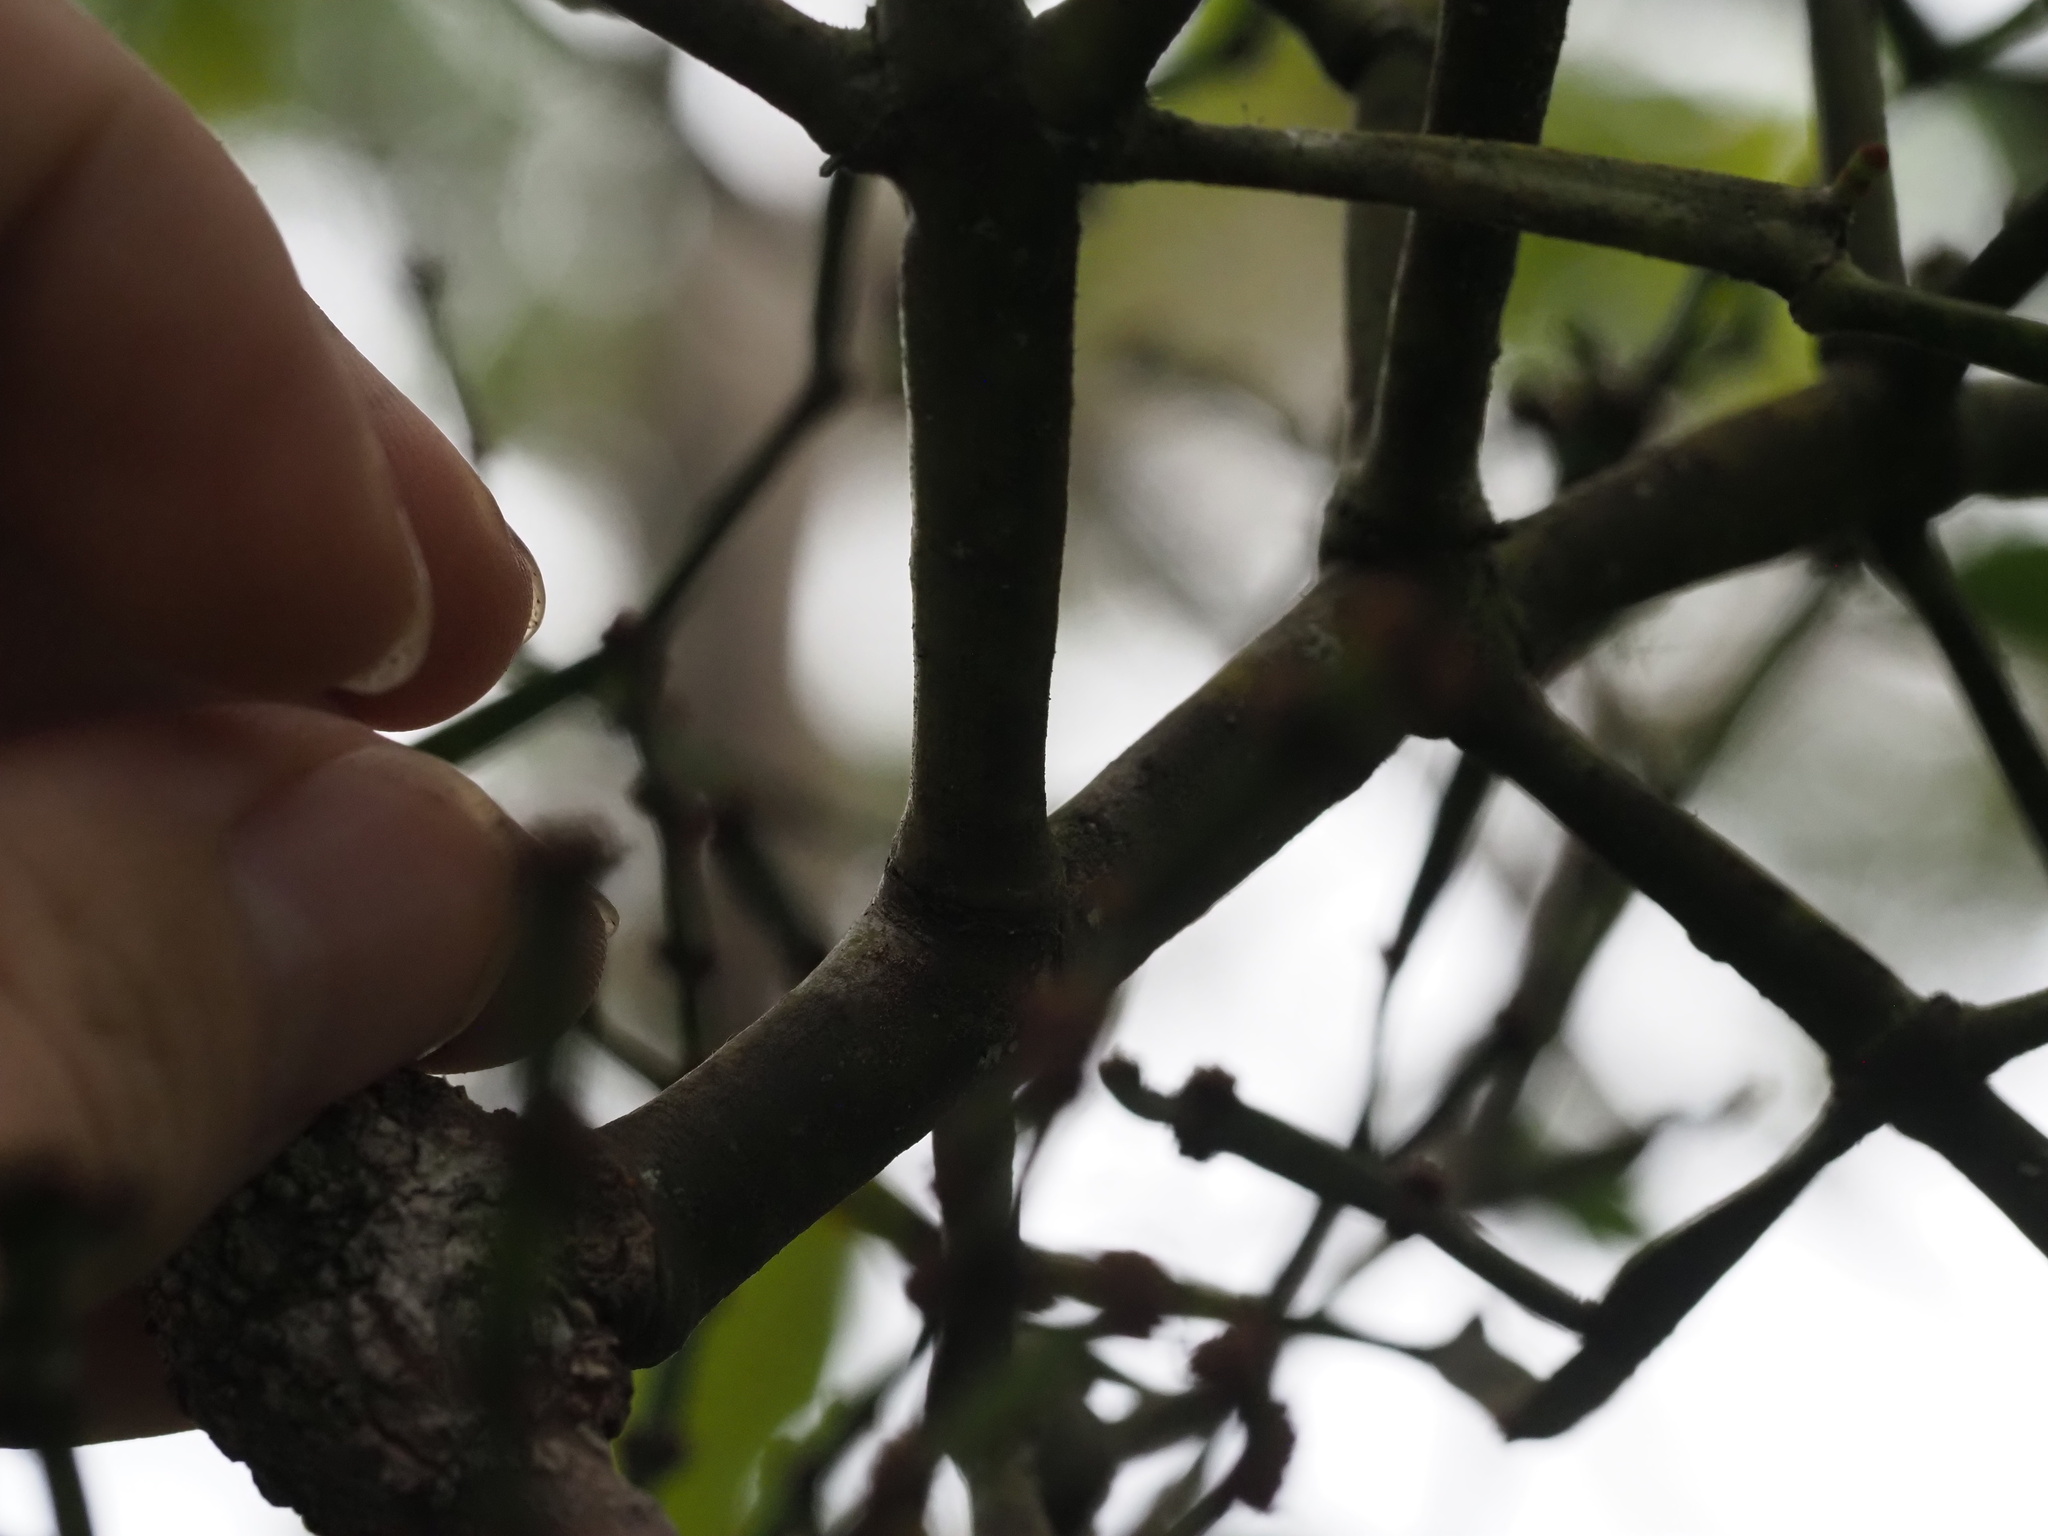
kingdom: Plantae
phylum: Tracheophyta
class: Magnoliopsida
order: Santalales
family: Viscaceae
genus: Korthalsella
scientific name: Korthalsella platycaula
